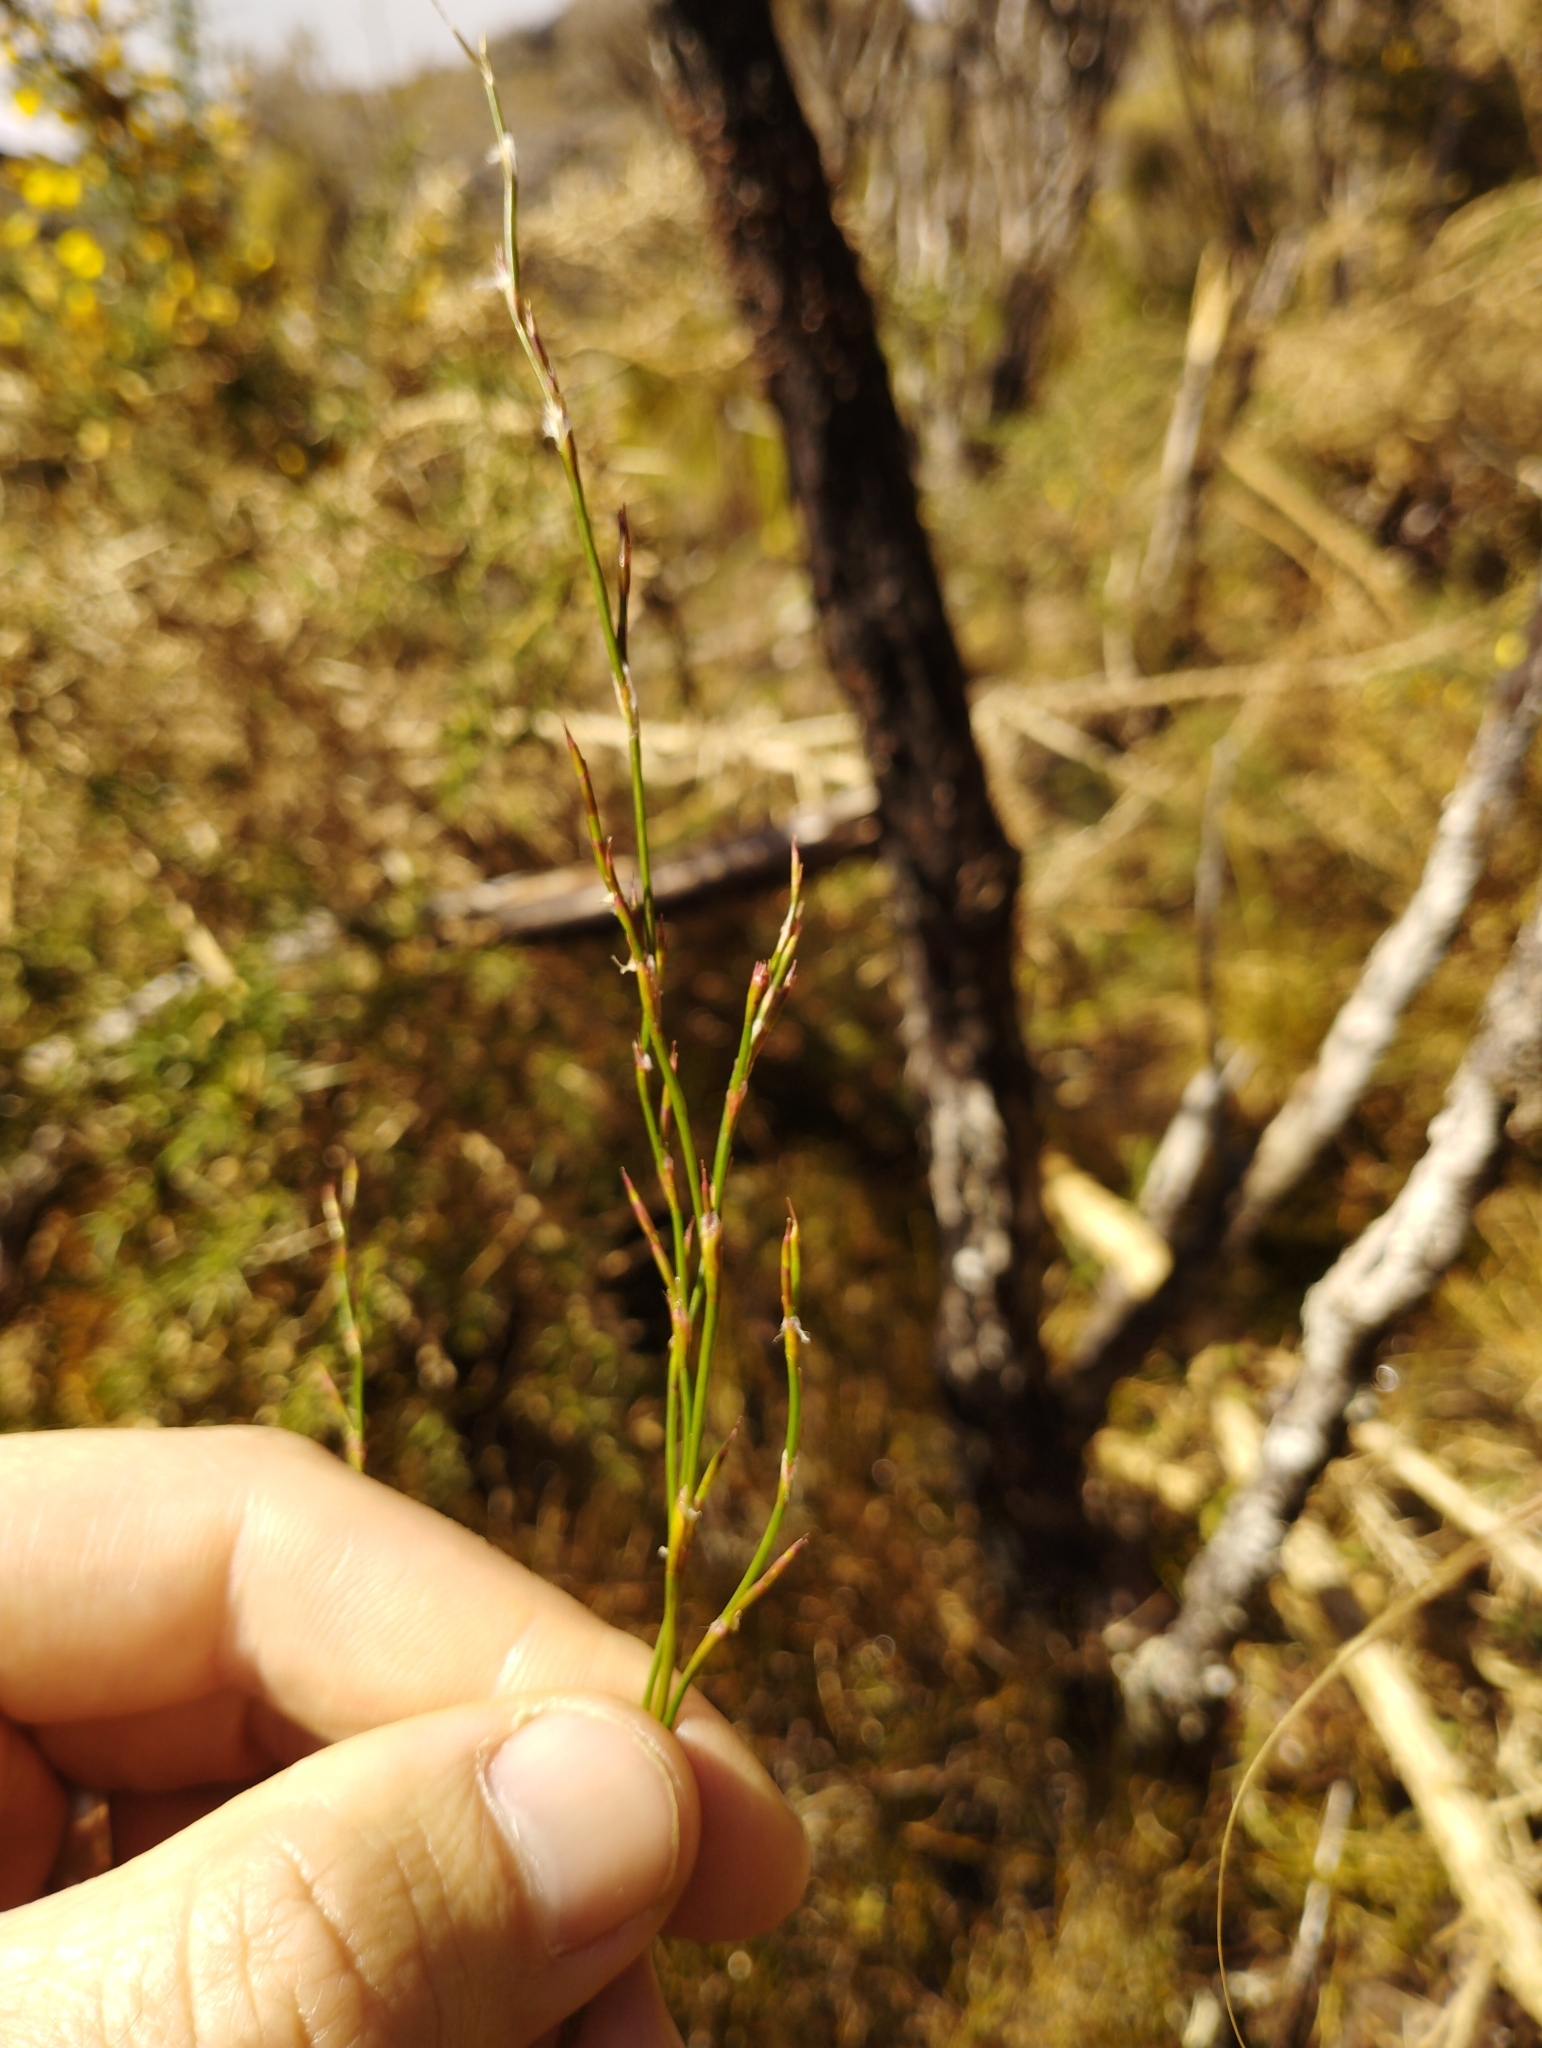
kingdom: Plantae
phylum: Tracheophyta
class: Liliopsida
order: Poales
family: Restionaceae
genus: Empodisma
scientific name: Empodisma minus
